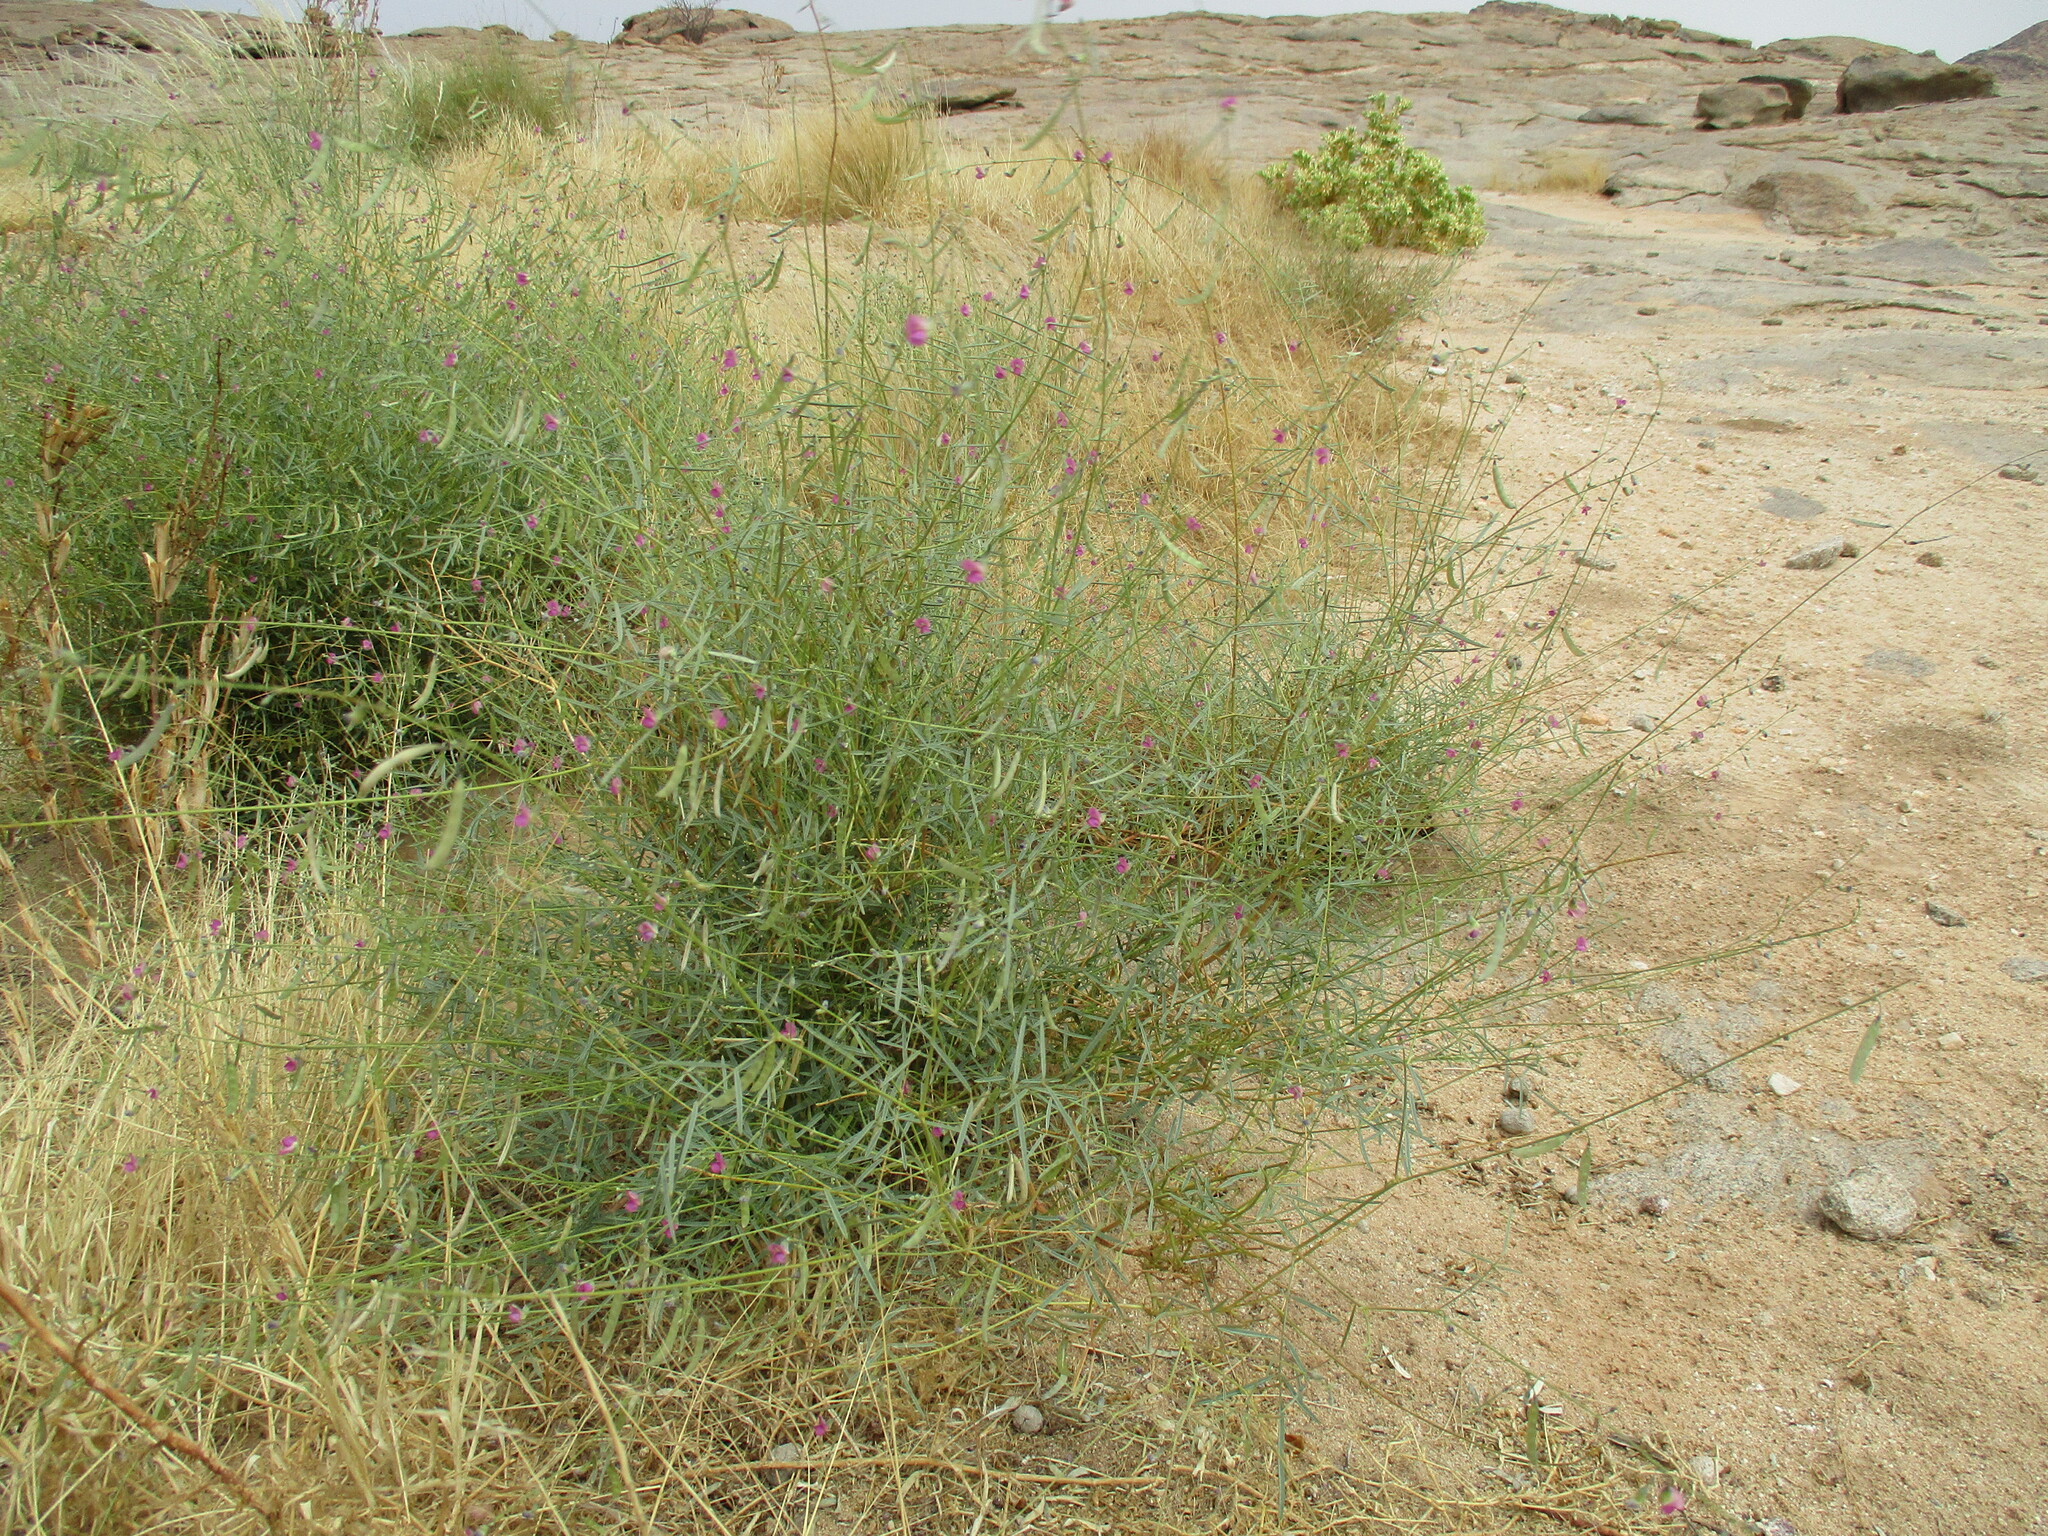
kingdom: Plantae
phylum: Tracheophyta
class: Magnoliopsida
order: Fabales
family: Fabaceae
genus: Tephrosia
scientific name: Tephrosia dregeana
